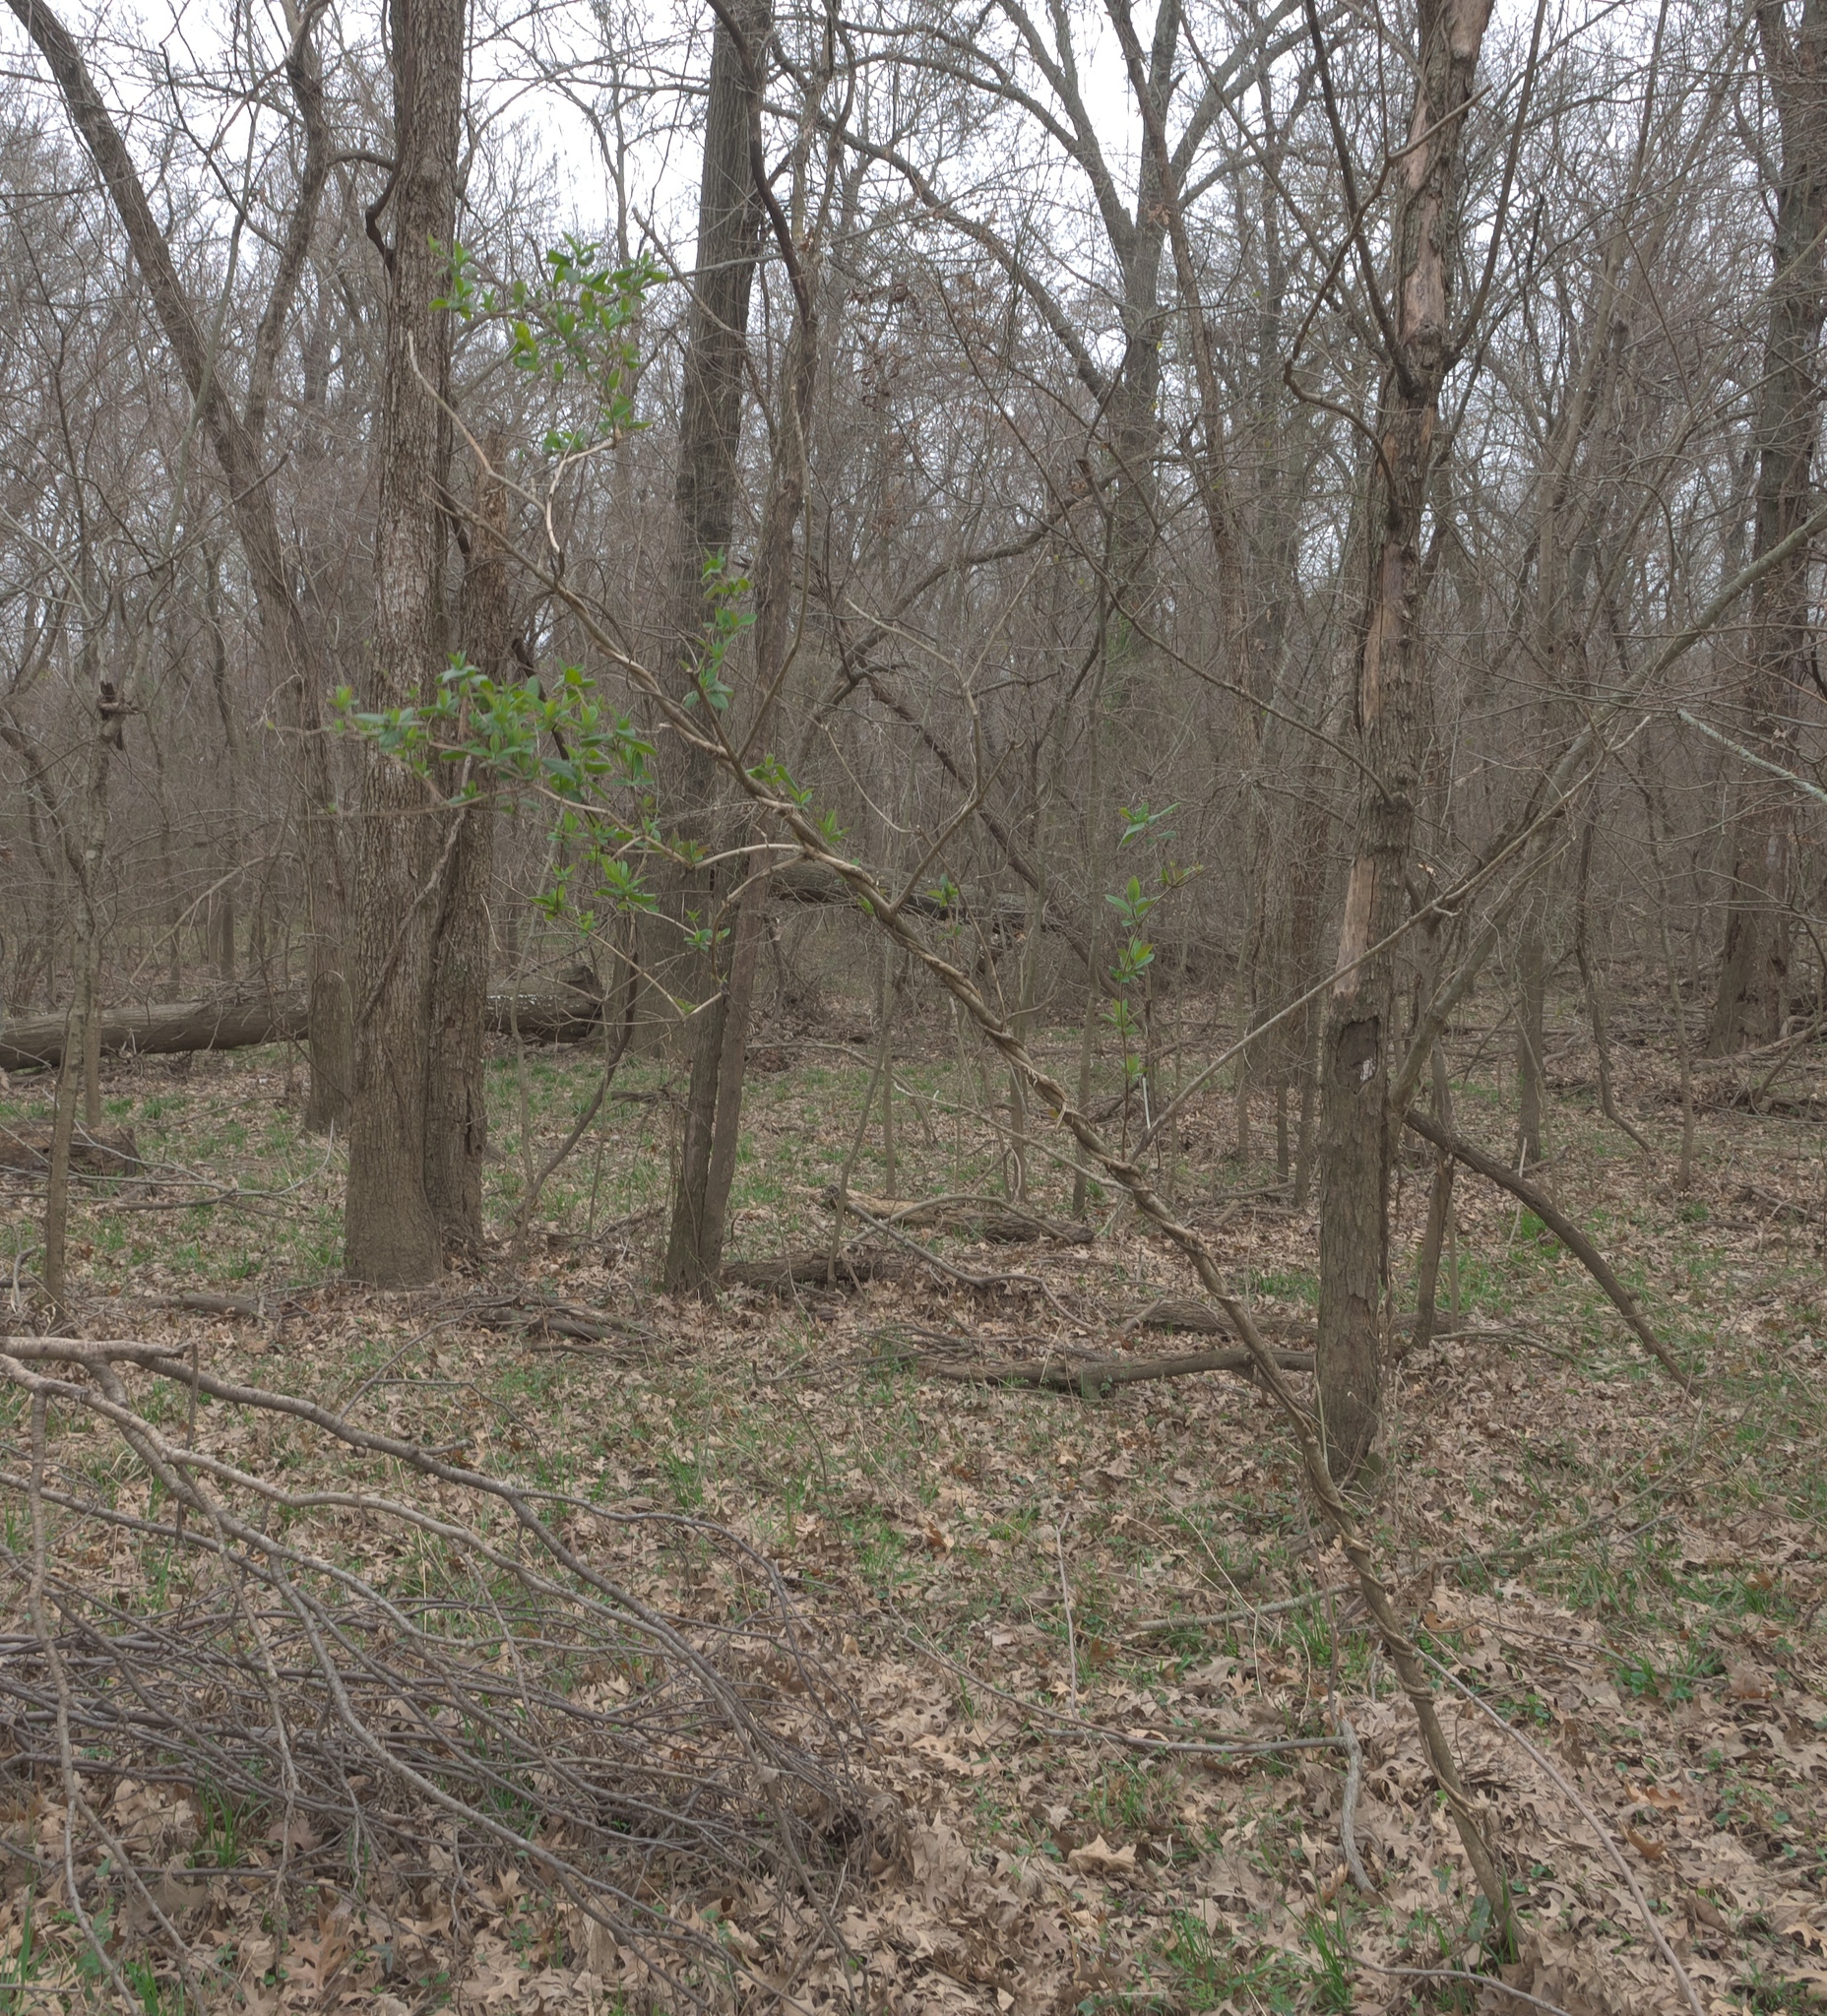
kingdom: Plantae
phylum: Tracheophyta
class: Magnoliopsida
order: Dipsacales
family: Caprifoliaceae
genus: Lonicera
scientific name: Lonicera japonica
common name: Japanese honeysuckle
